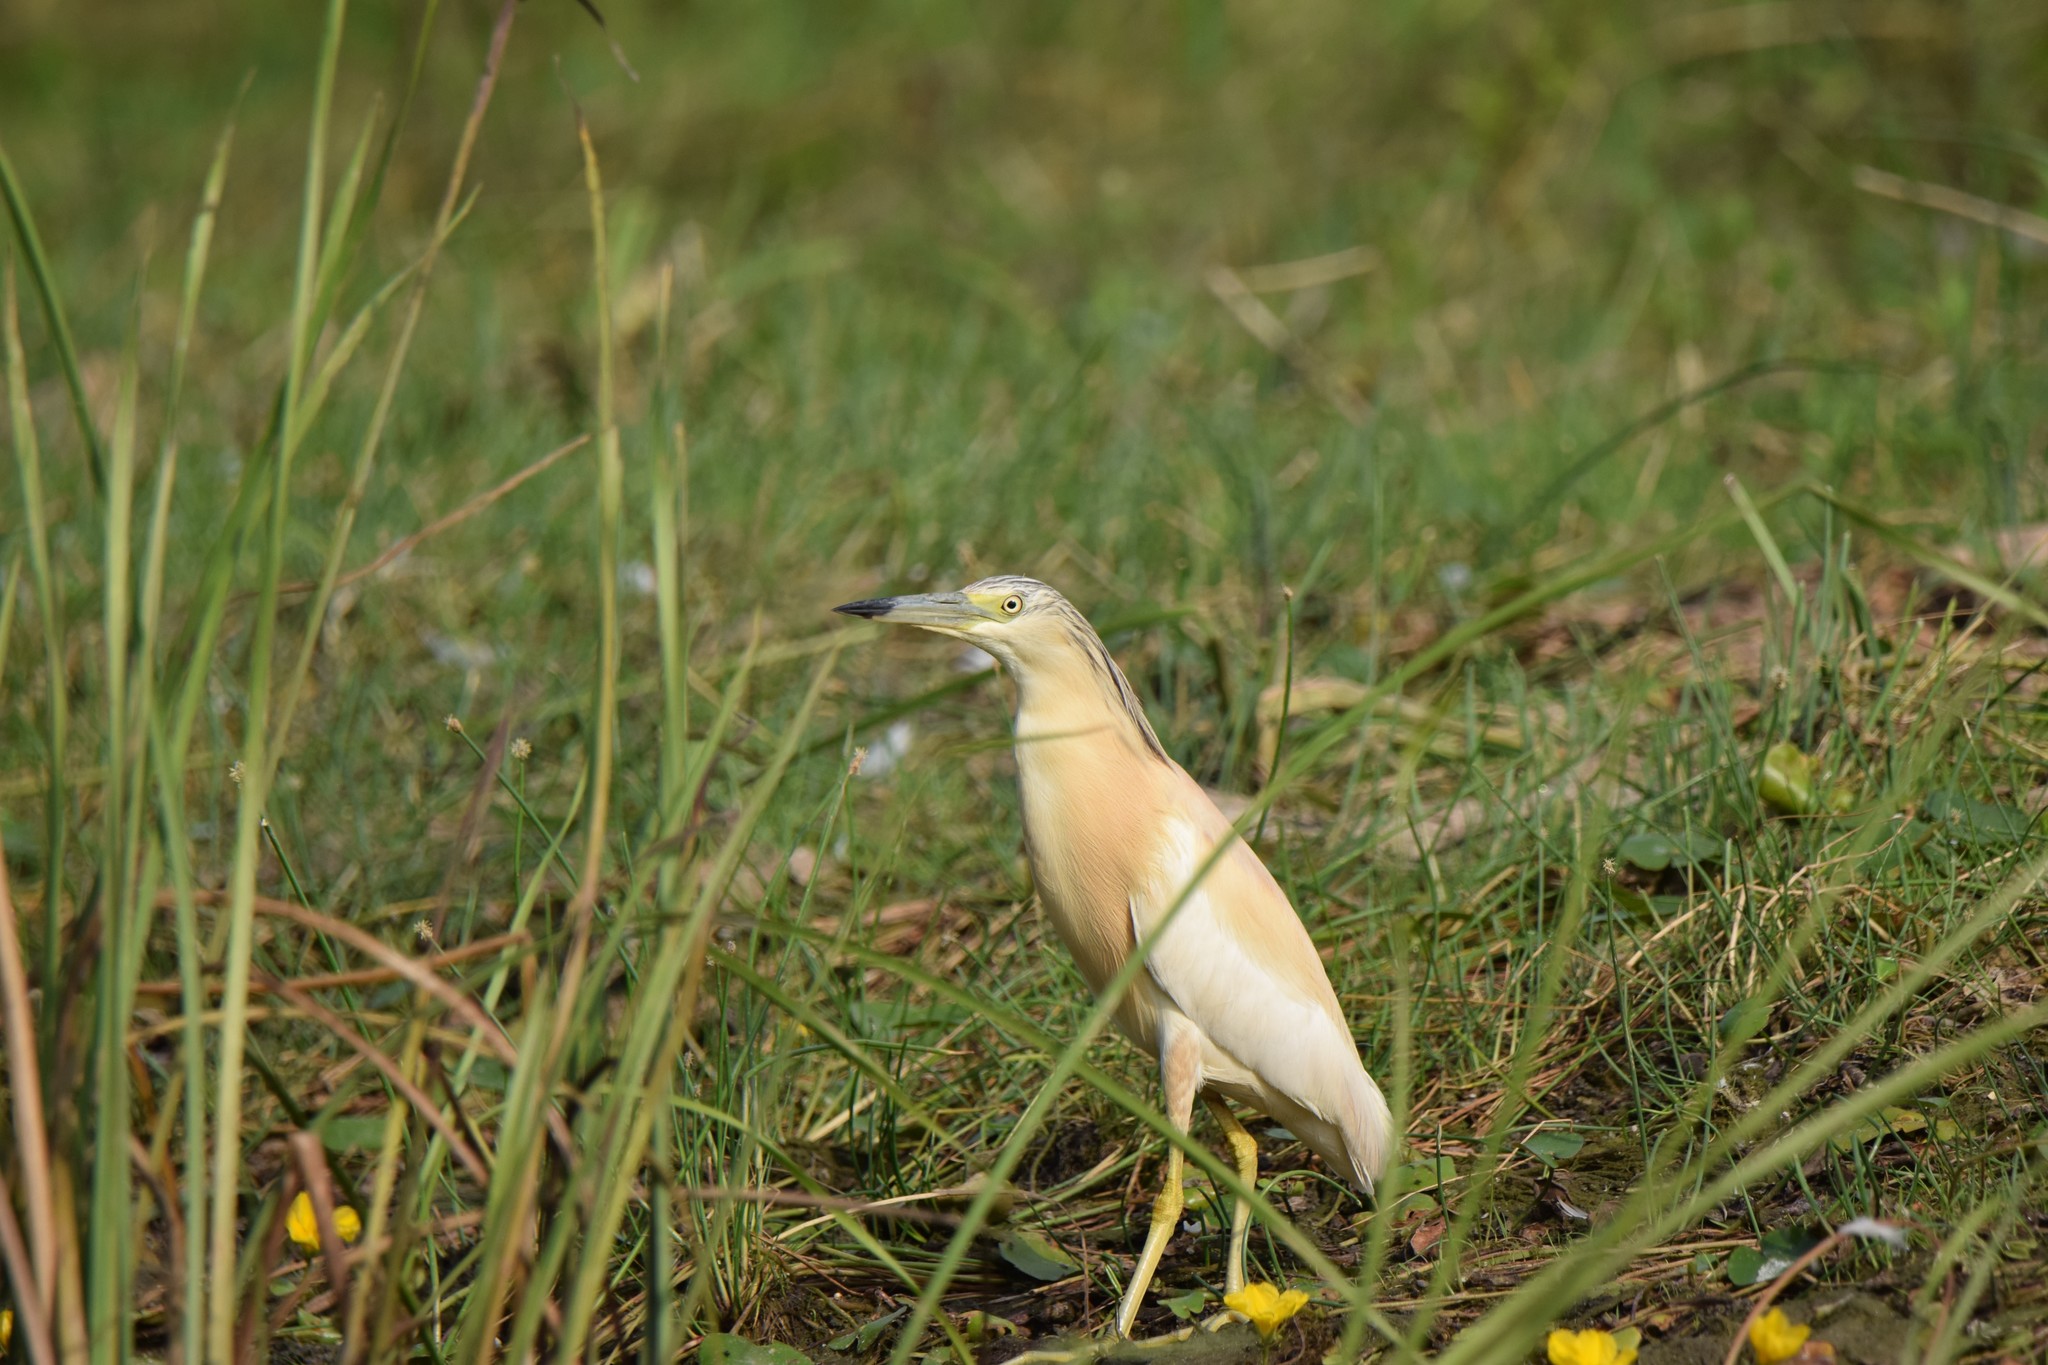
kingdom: Animalia
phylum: Chordata
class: Aves
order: Pelecaniformes
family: Ardeidae
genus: Ardeola
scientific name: Ardeola ralloides
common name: Squacco heron
